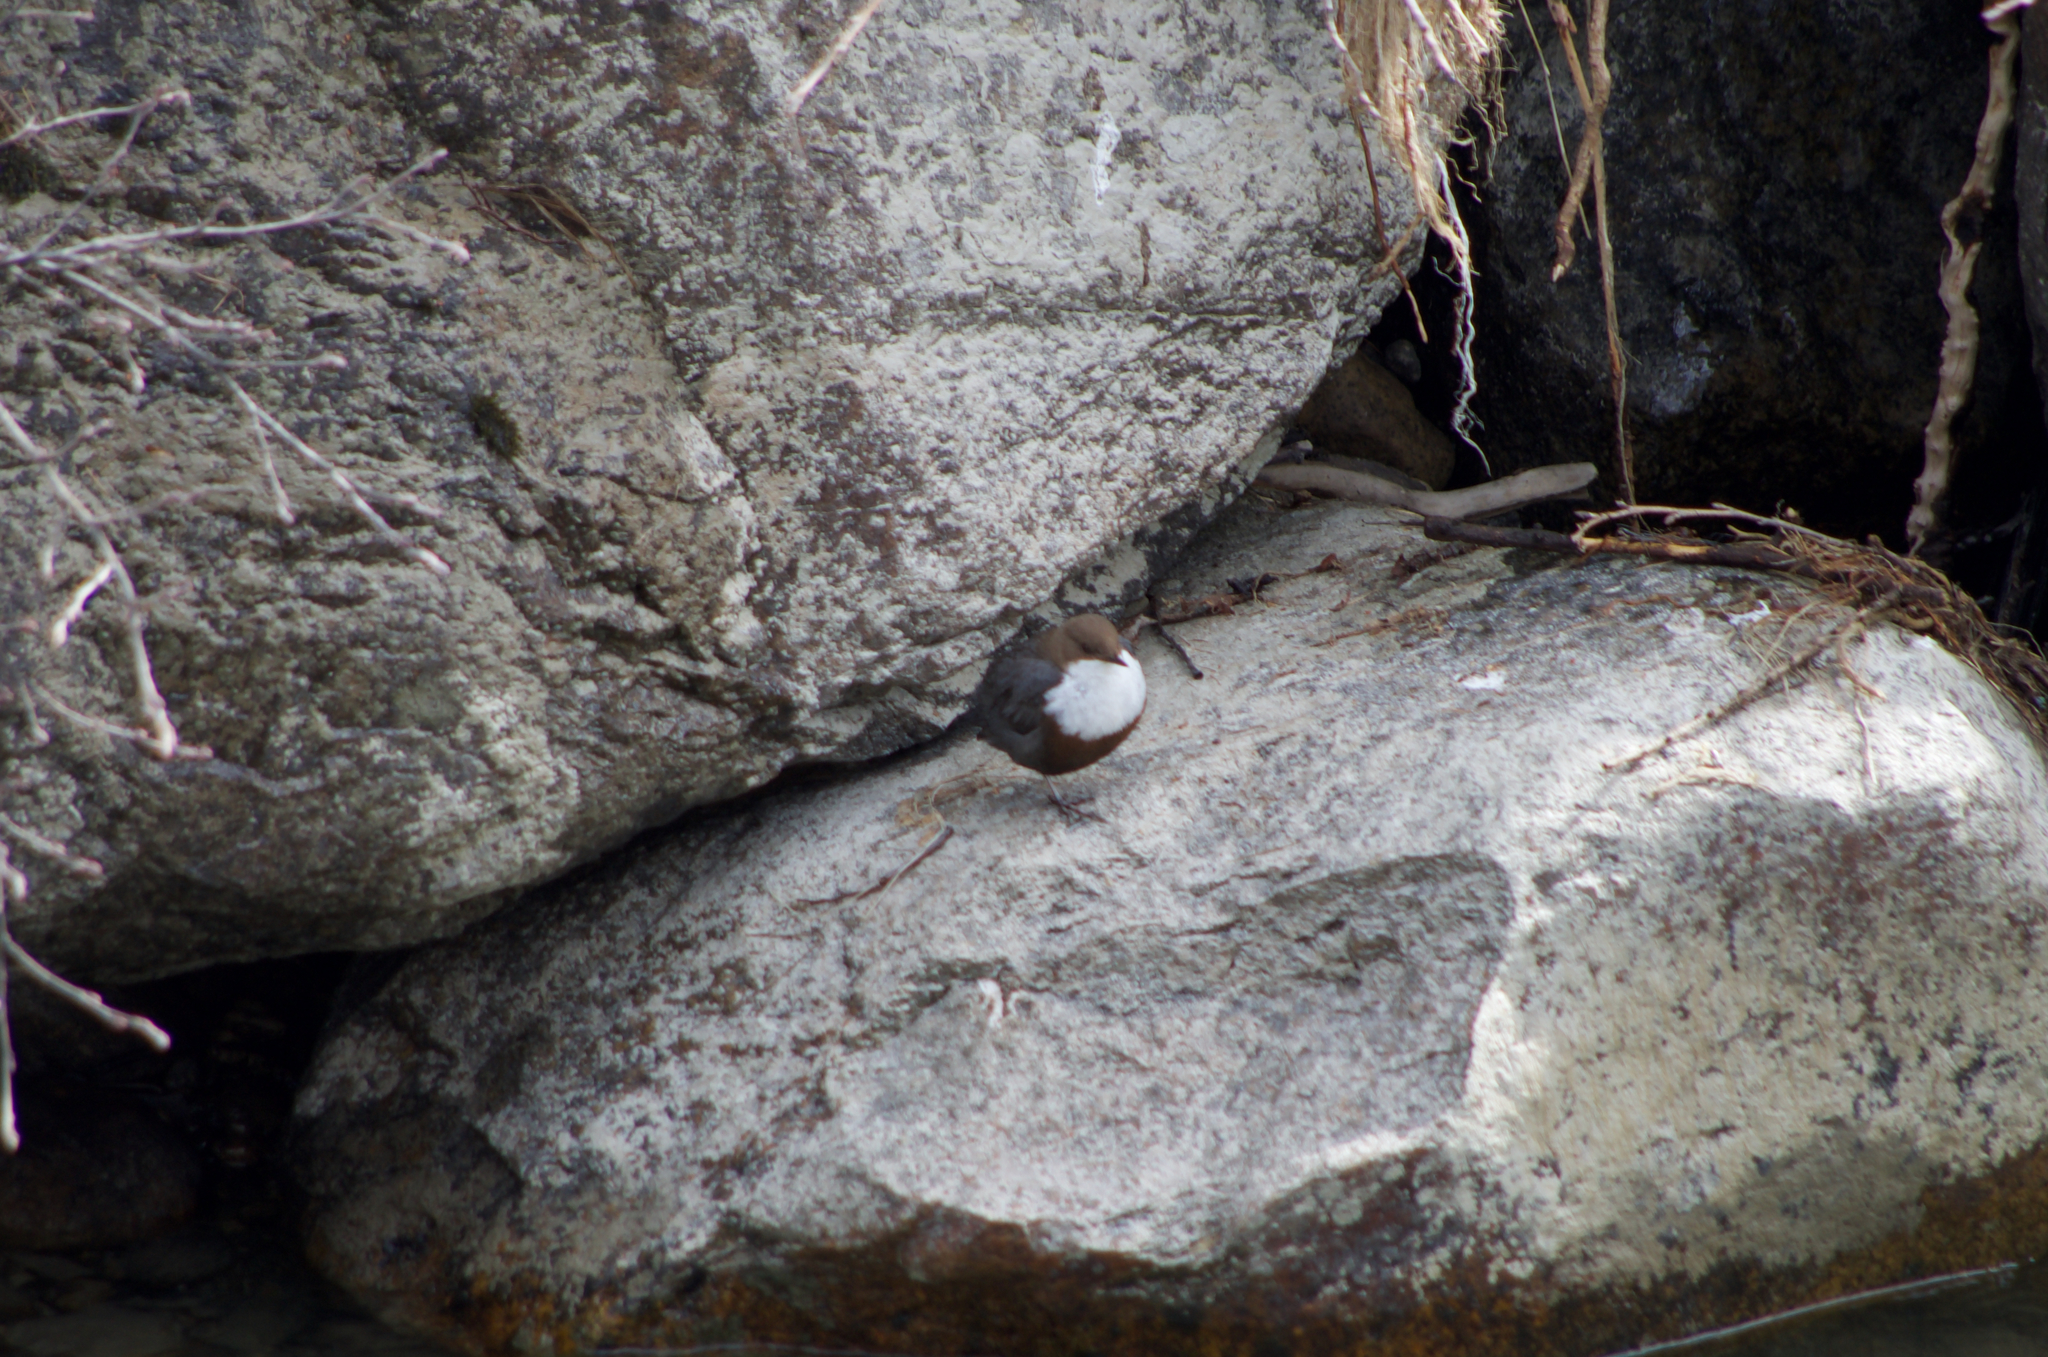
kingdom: Animalia
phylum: Chordata
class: Aves
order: Passeriformes
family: Cinclidae
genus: Cinclus
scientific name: Cinclus cinclus
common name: White-throated dipper
